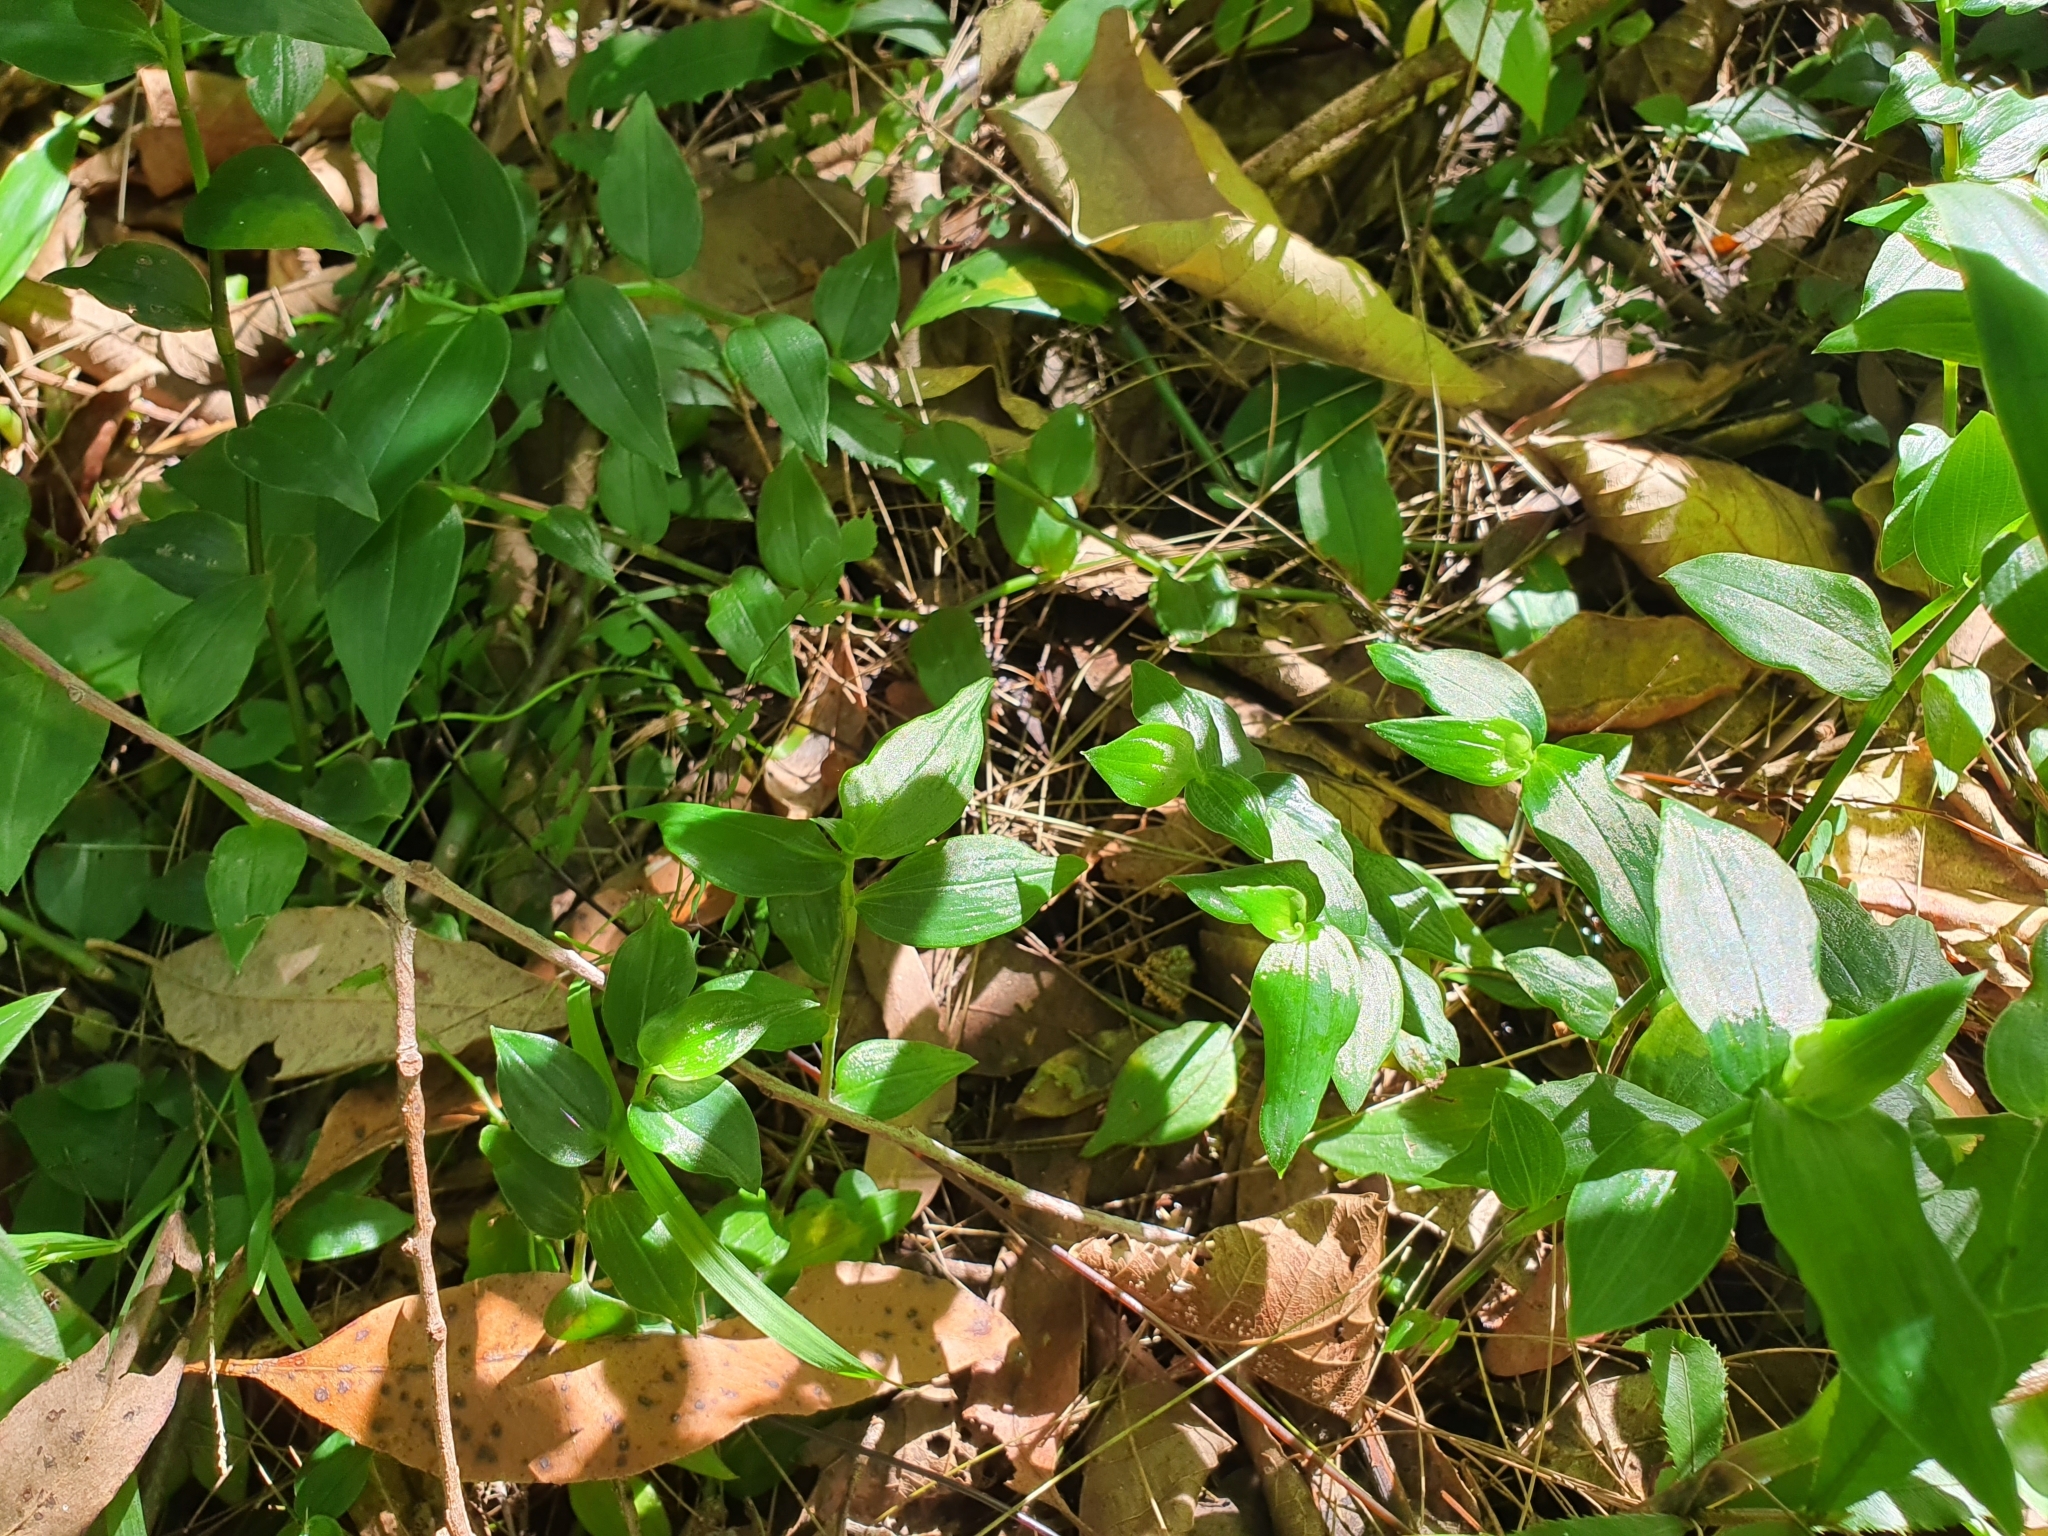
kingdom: Plantae
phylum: Tracheophyta
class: Liliopsida
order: Commelinales
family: Commelinaceae
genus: Tradescantia
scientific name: Tradescantia fluminensis
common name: Wandering-jew
